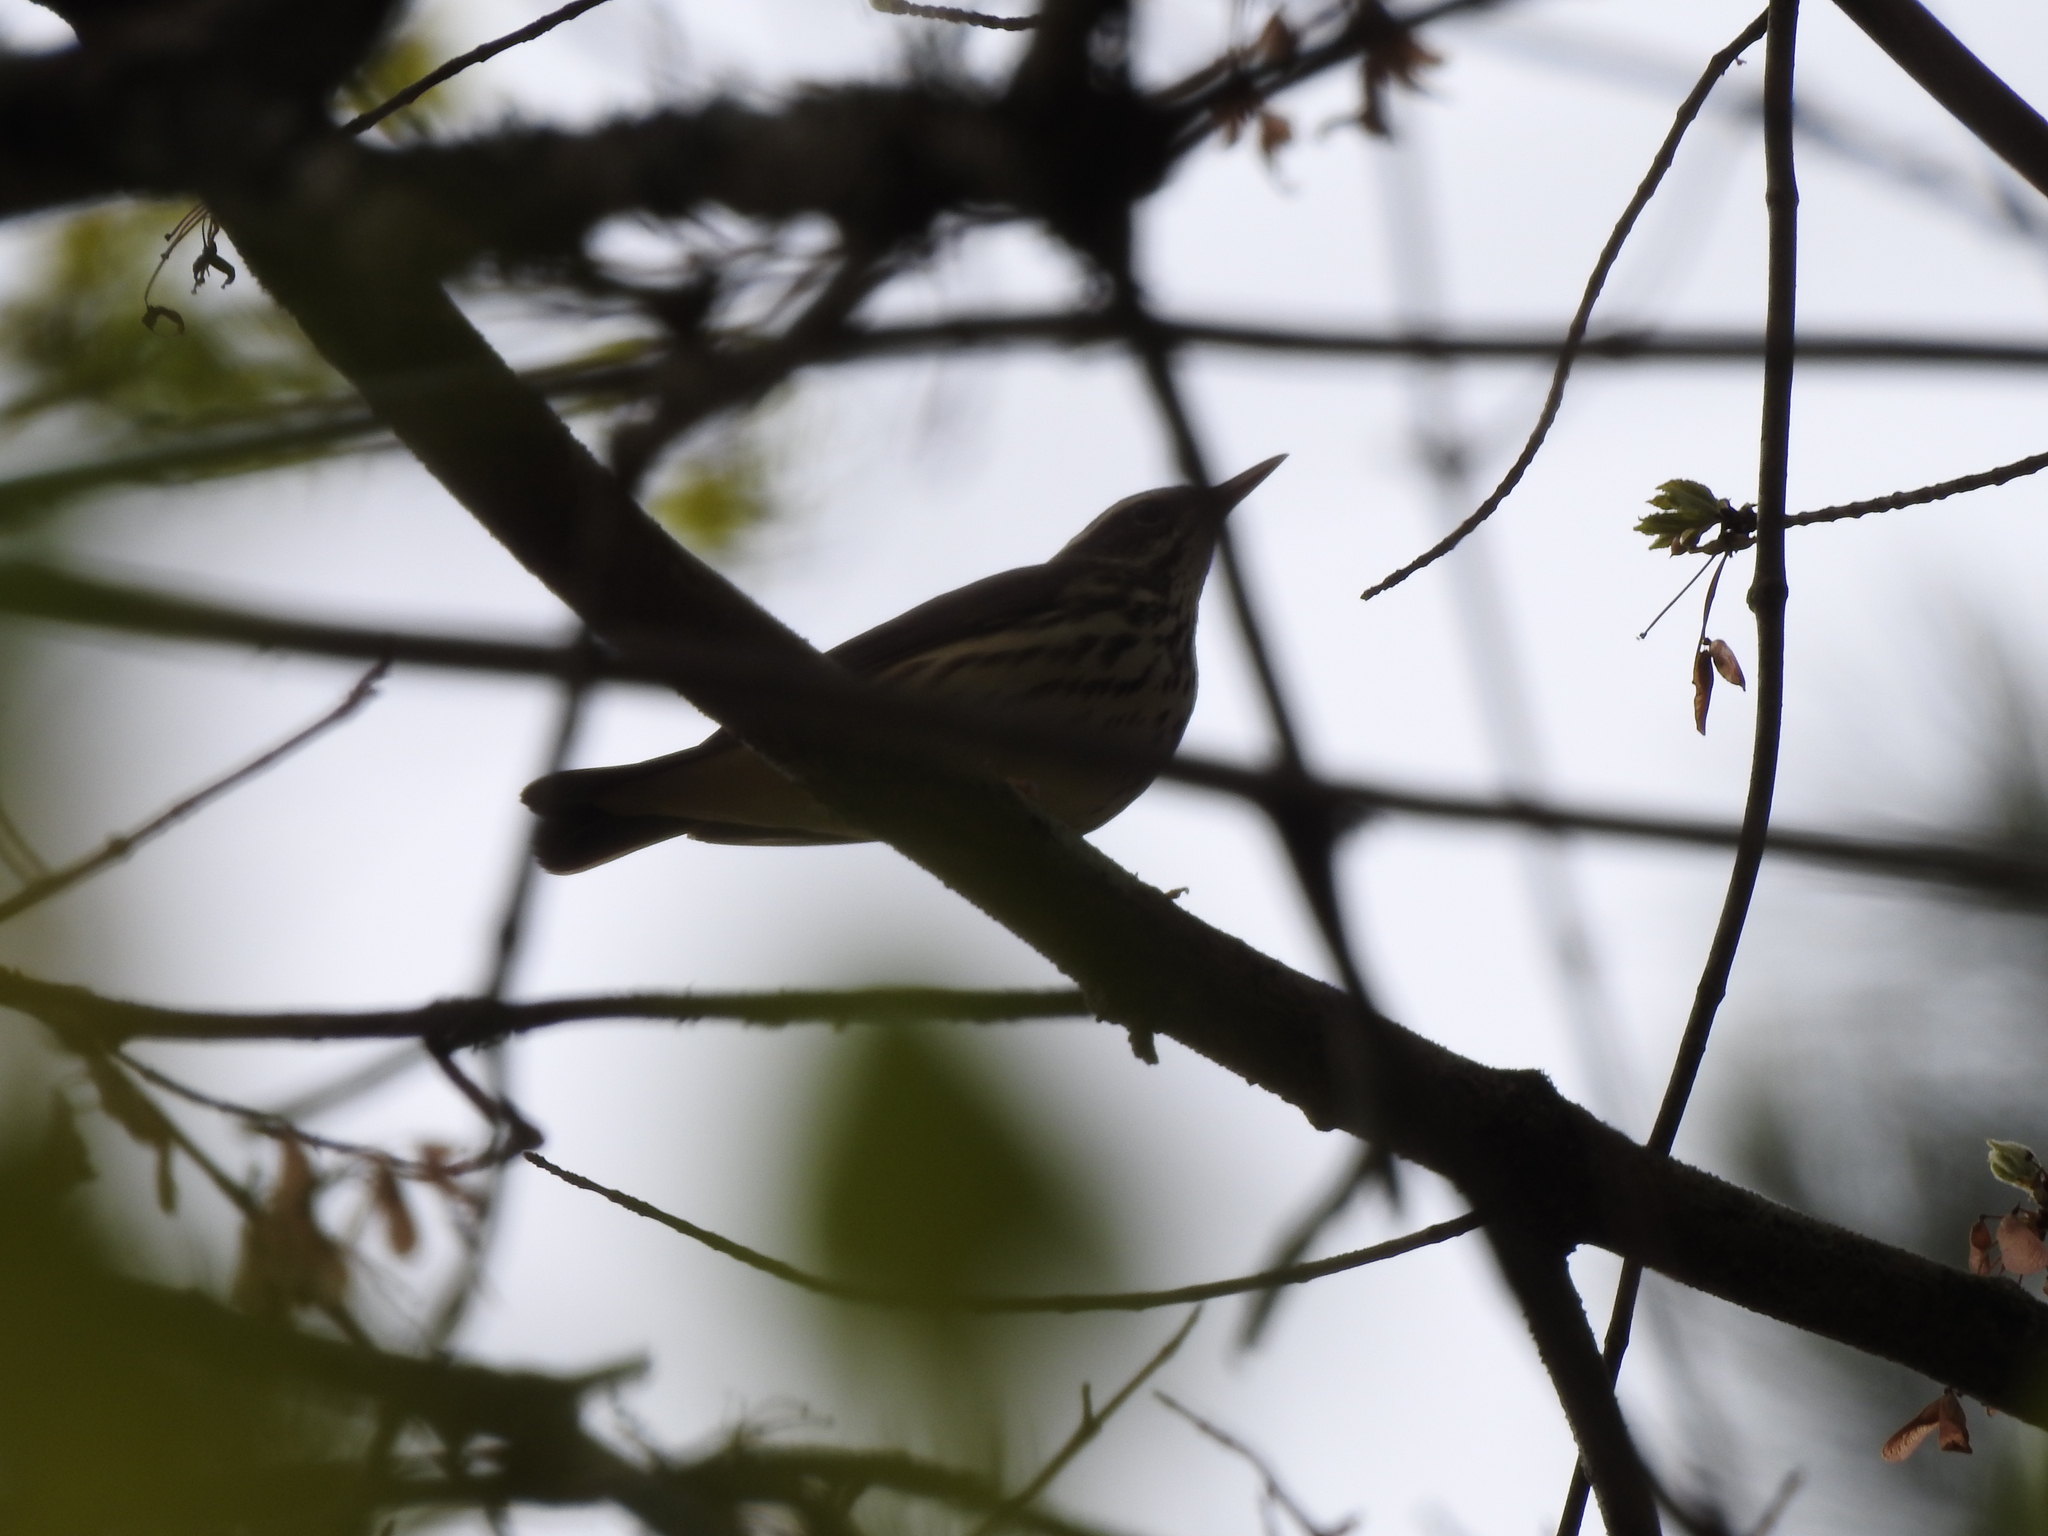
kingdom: Animalia
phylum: Chordata
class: Aves
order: Passeriformes
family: Parulidae
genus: Parkesia
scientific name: Parkesia motacilla
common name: Louisiana waterthrush
